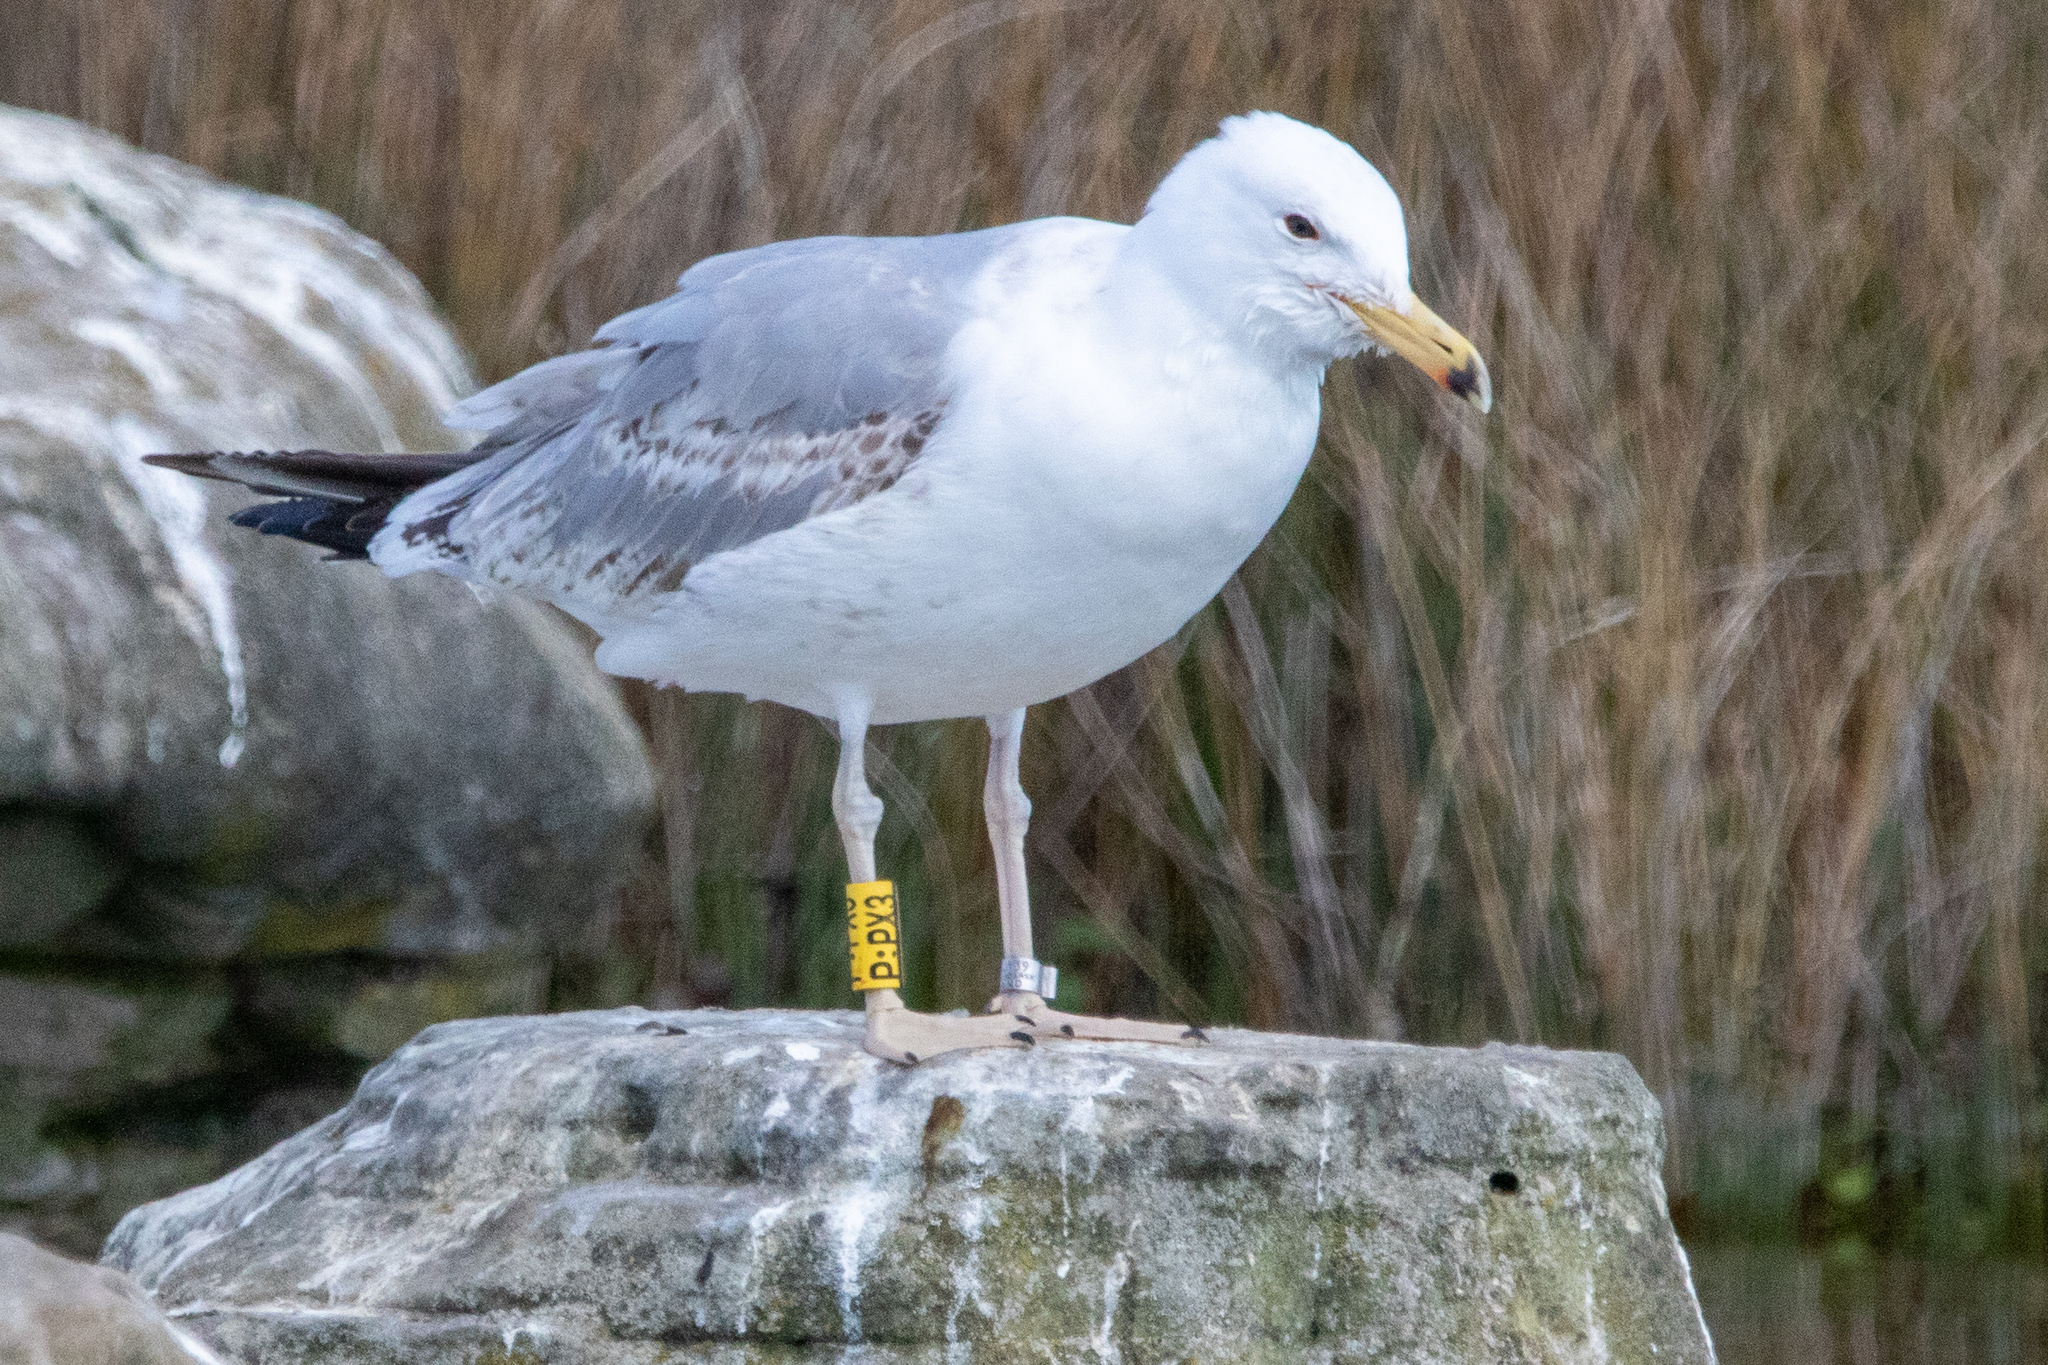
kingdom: Animalia
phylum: Chordata
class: Aves
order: Charadriiformes
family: Laridae
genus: Larus
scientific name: Larus cachinnans
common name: Caspian gull
